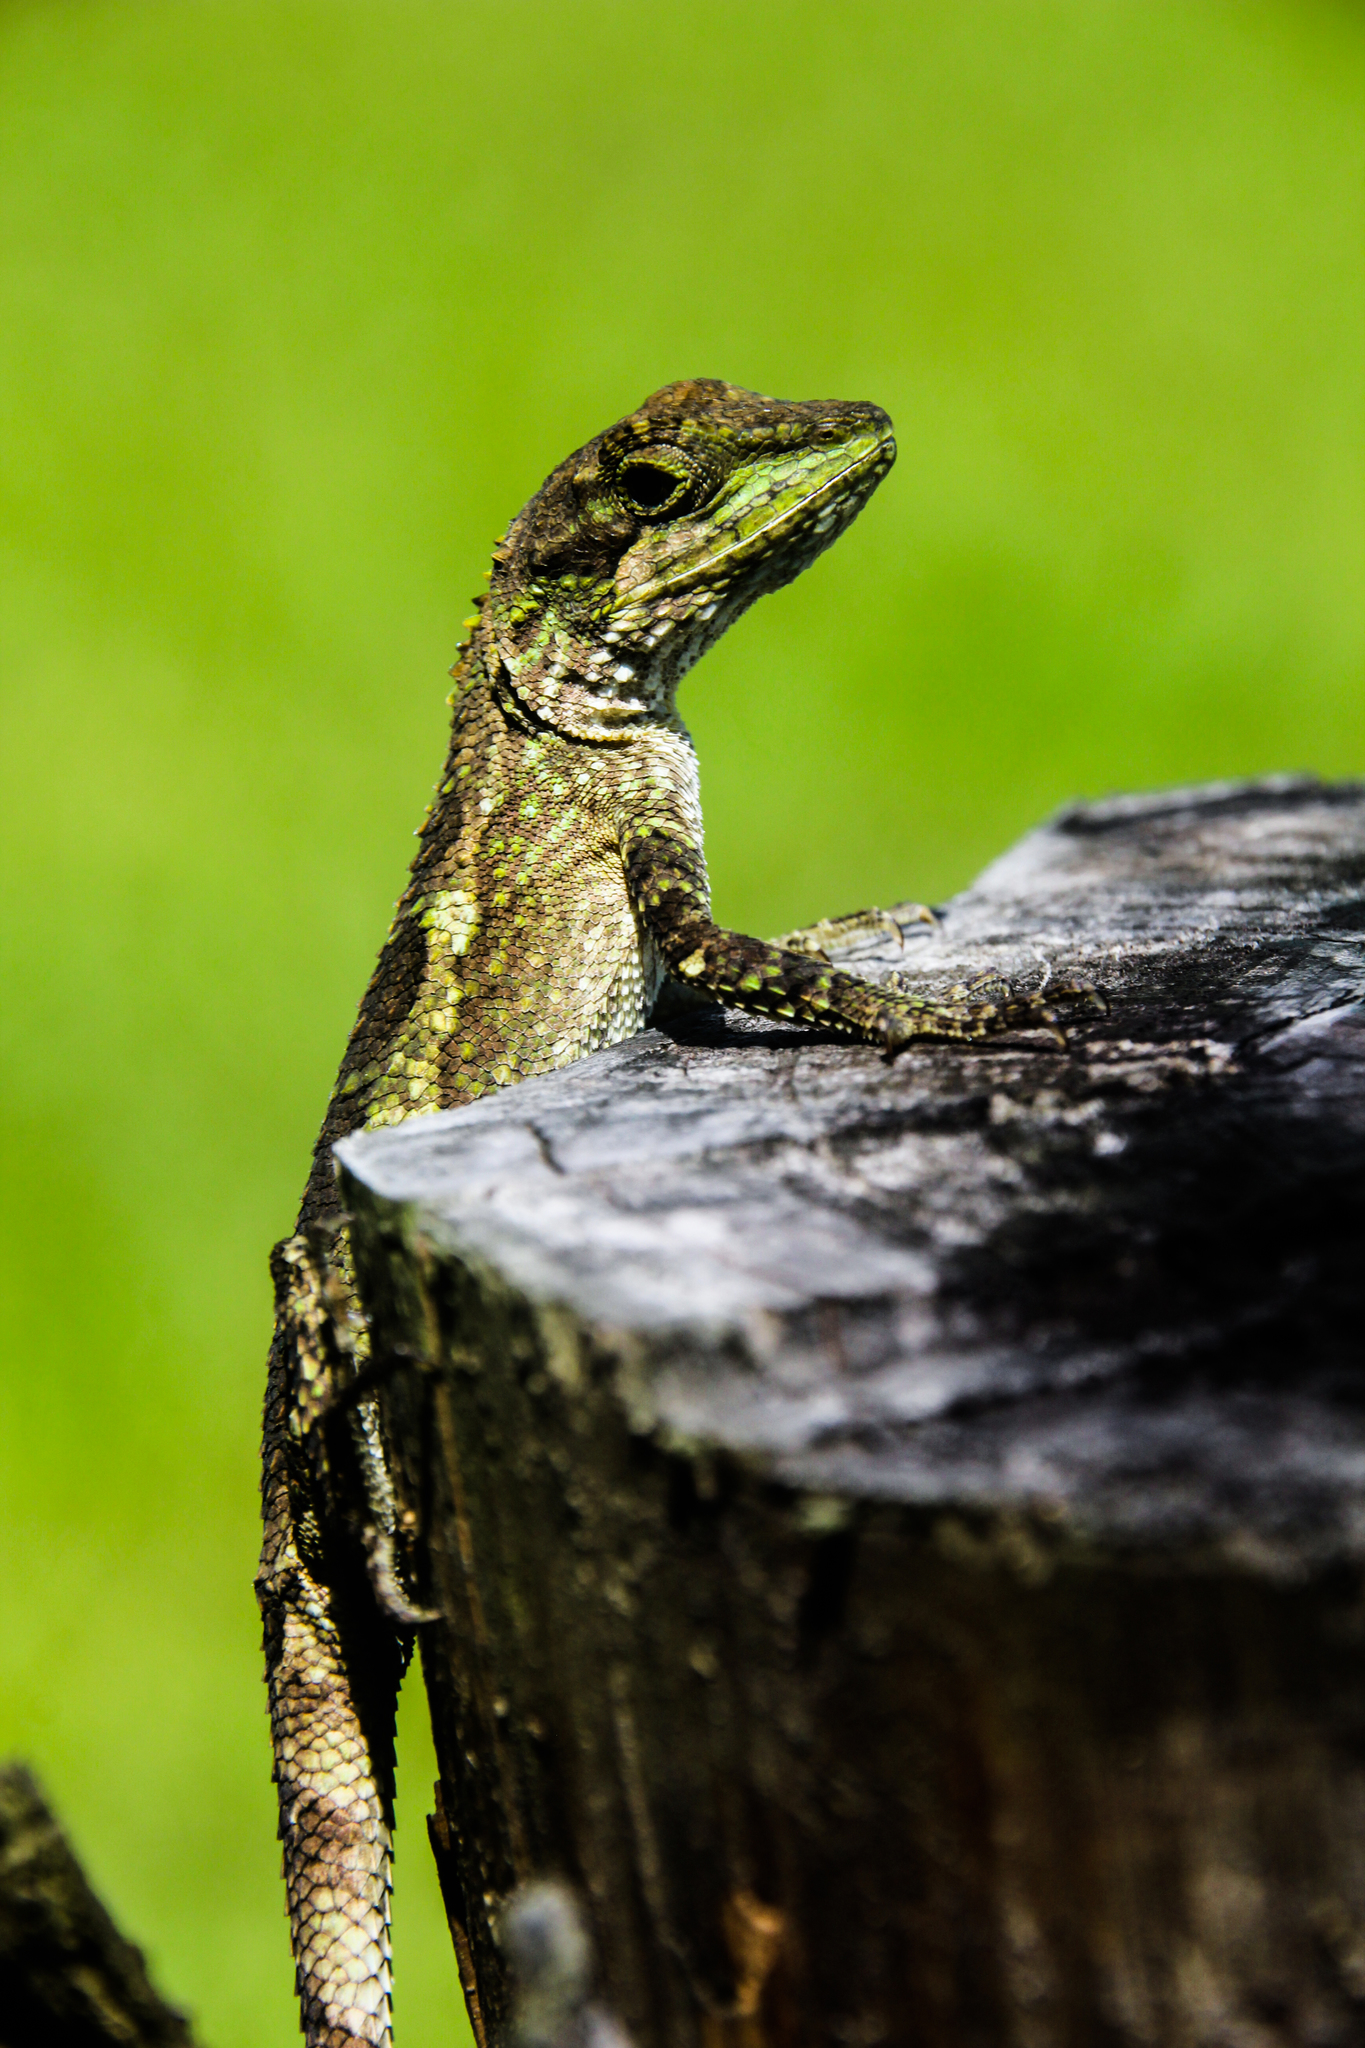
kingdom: Fungi
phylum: Basidiomycota
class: Agaricomycetes
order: Boletales
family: Diplocystidiaceae
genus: Diploderma
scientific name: Diploderma polygonatum
